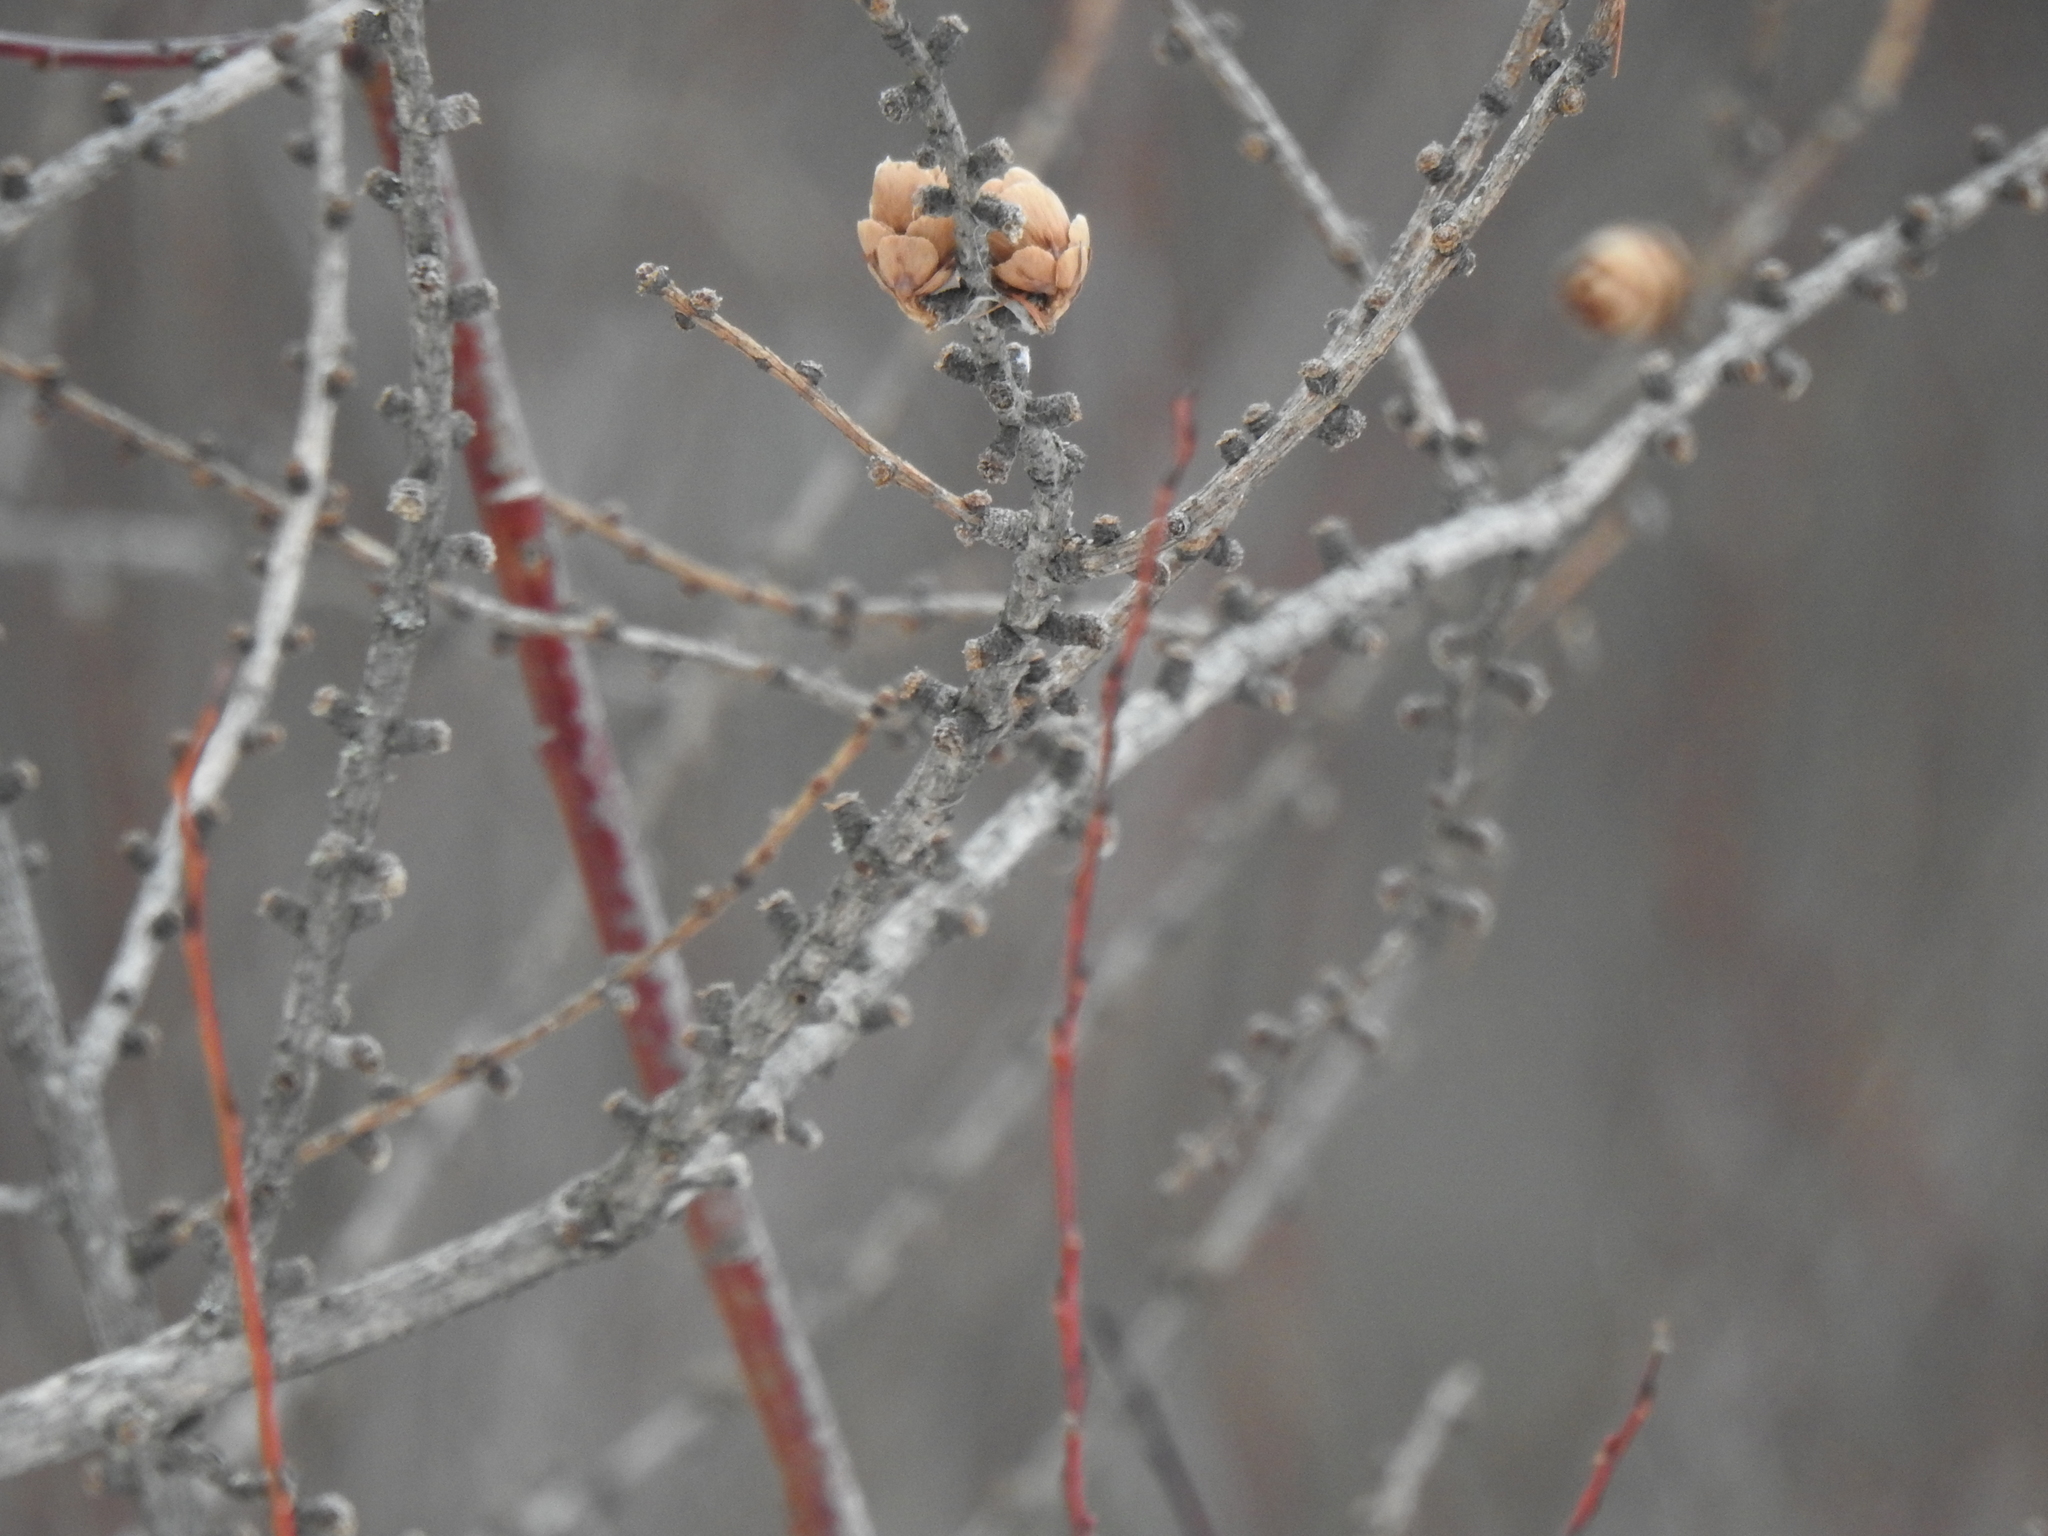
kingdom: Plantae
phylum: Tracheophyta
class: Pinopsida
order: Pinales
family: Pinaceae
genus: Larix
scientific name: Larix laricina
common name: American larch
